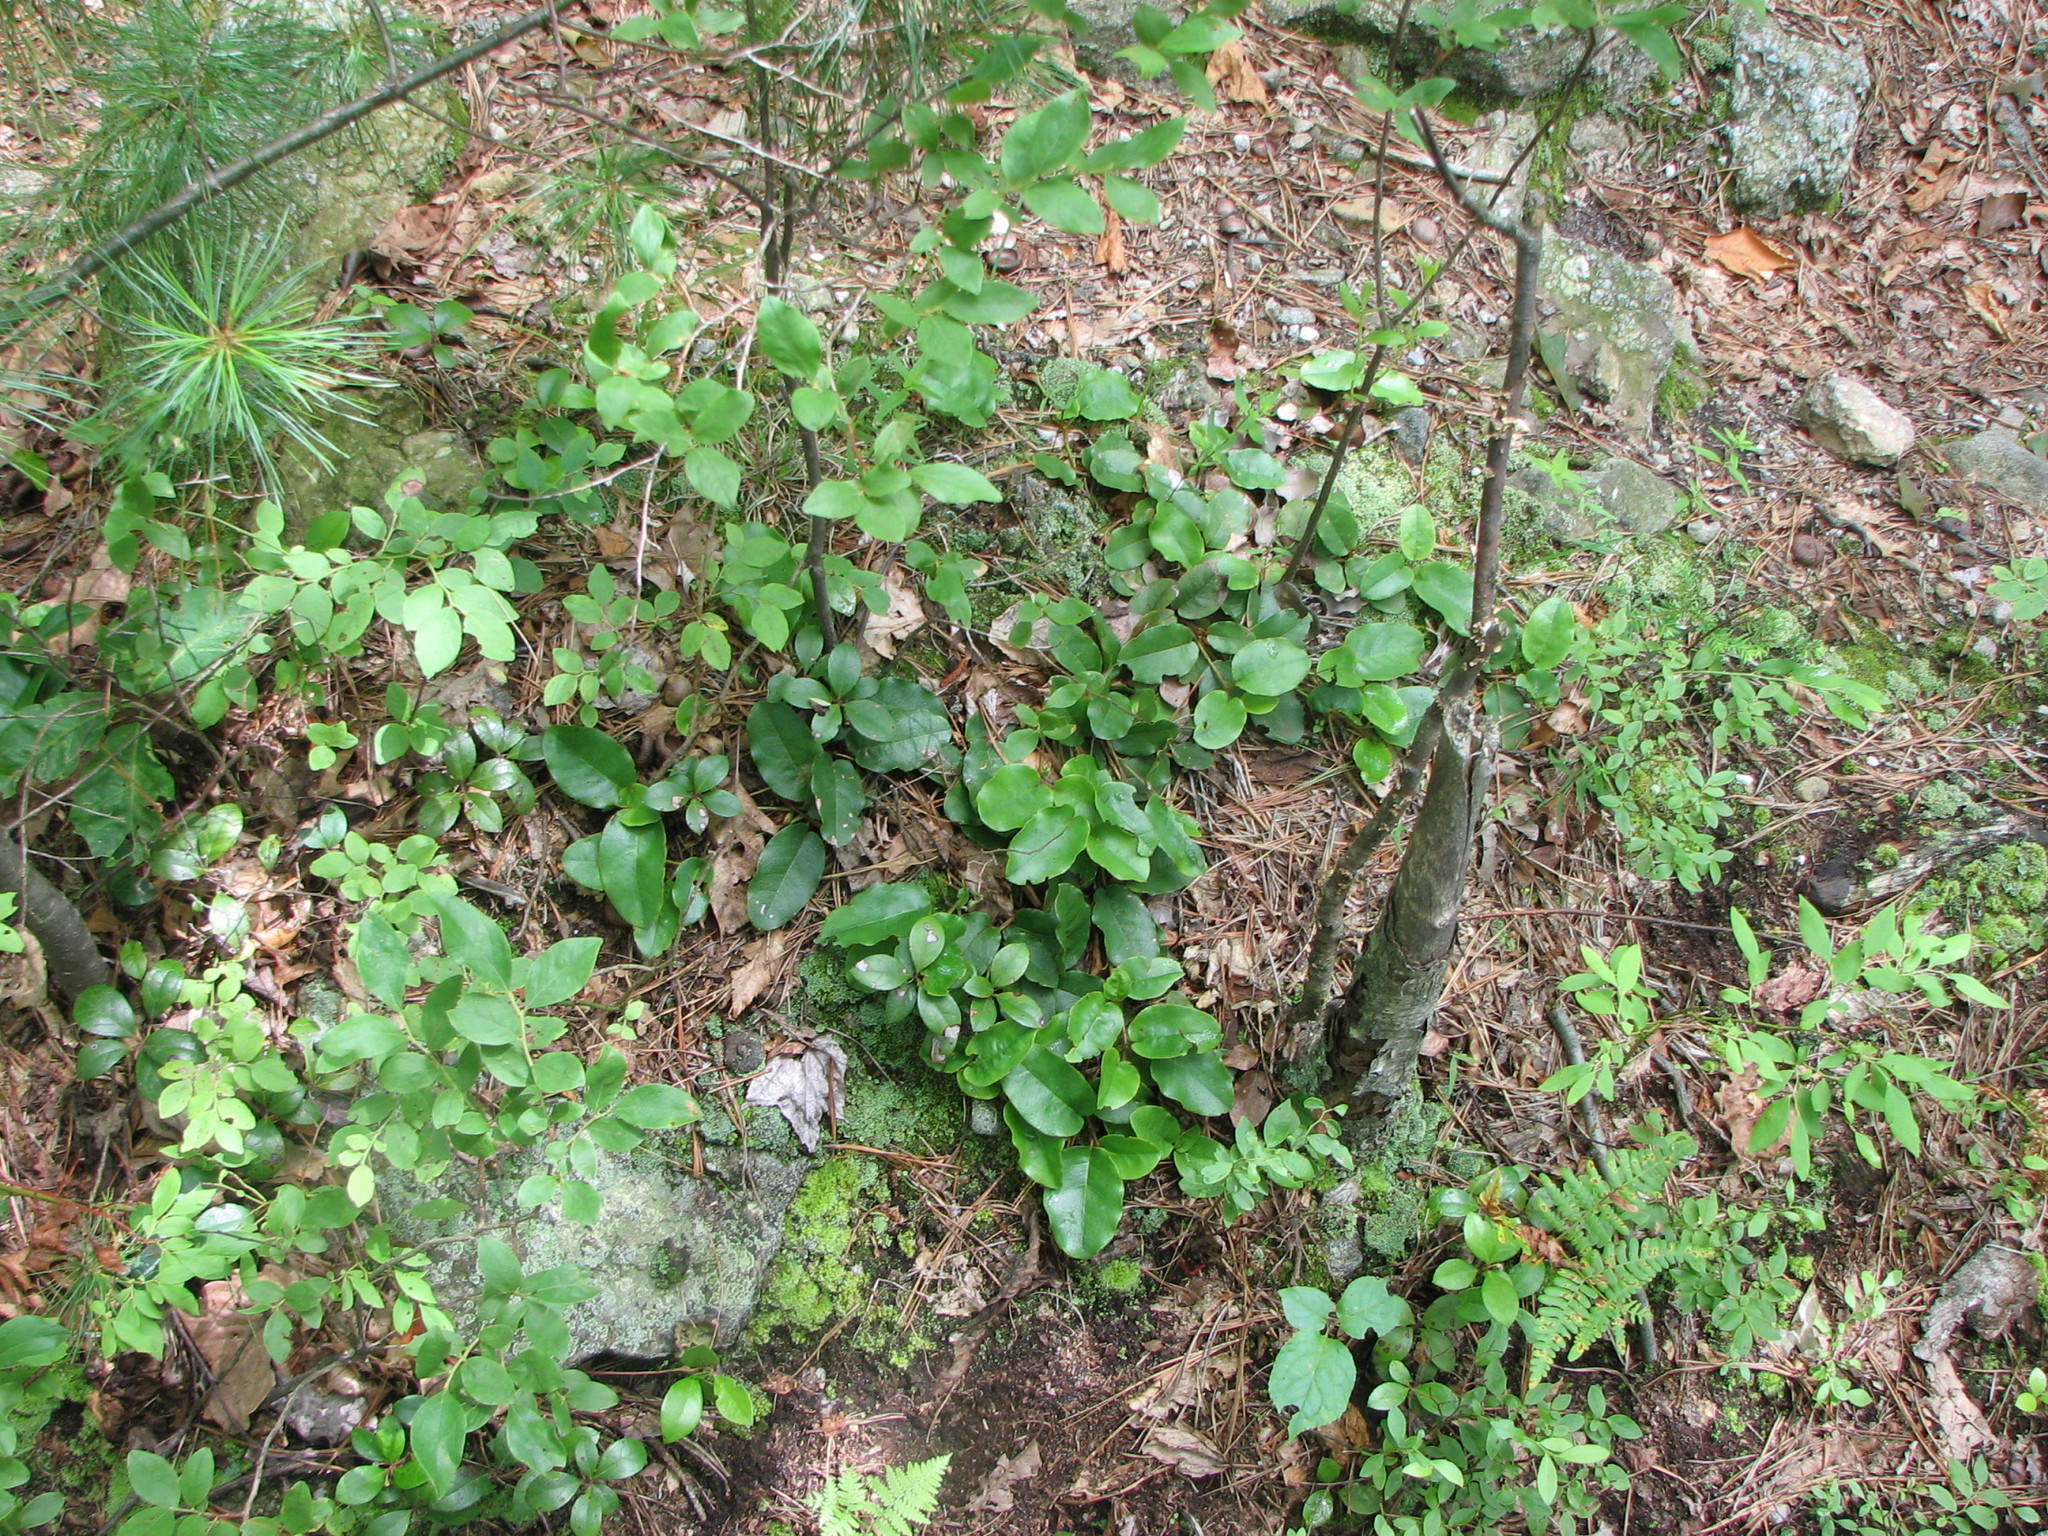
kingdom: Plantae
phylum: Tracheophyta
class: Magnoliopsida
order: Ericales
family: Ericaceae
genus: Epigaea
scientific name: Epigaea repens
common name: Gravelroot
